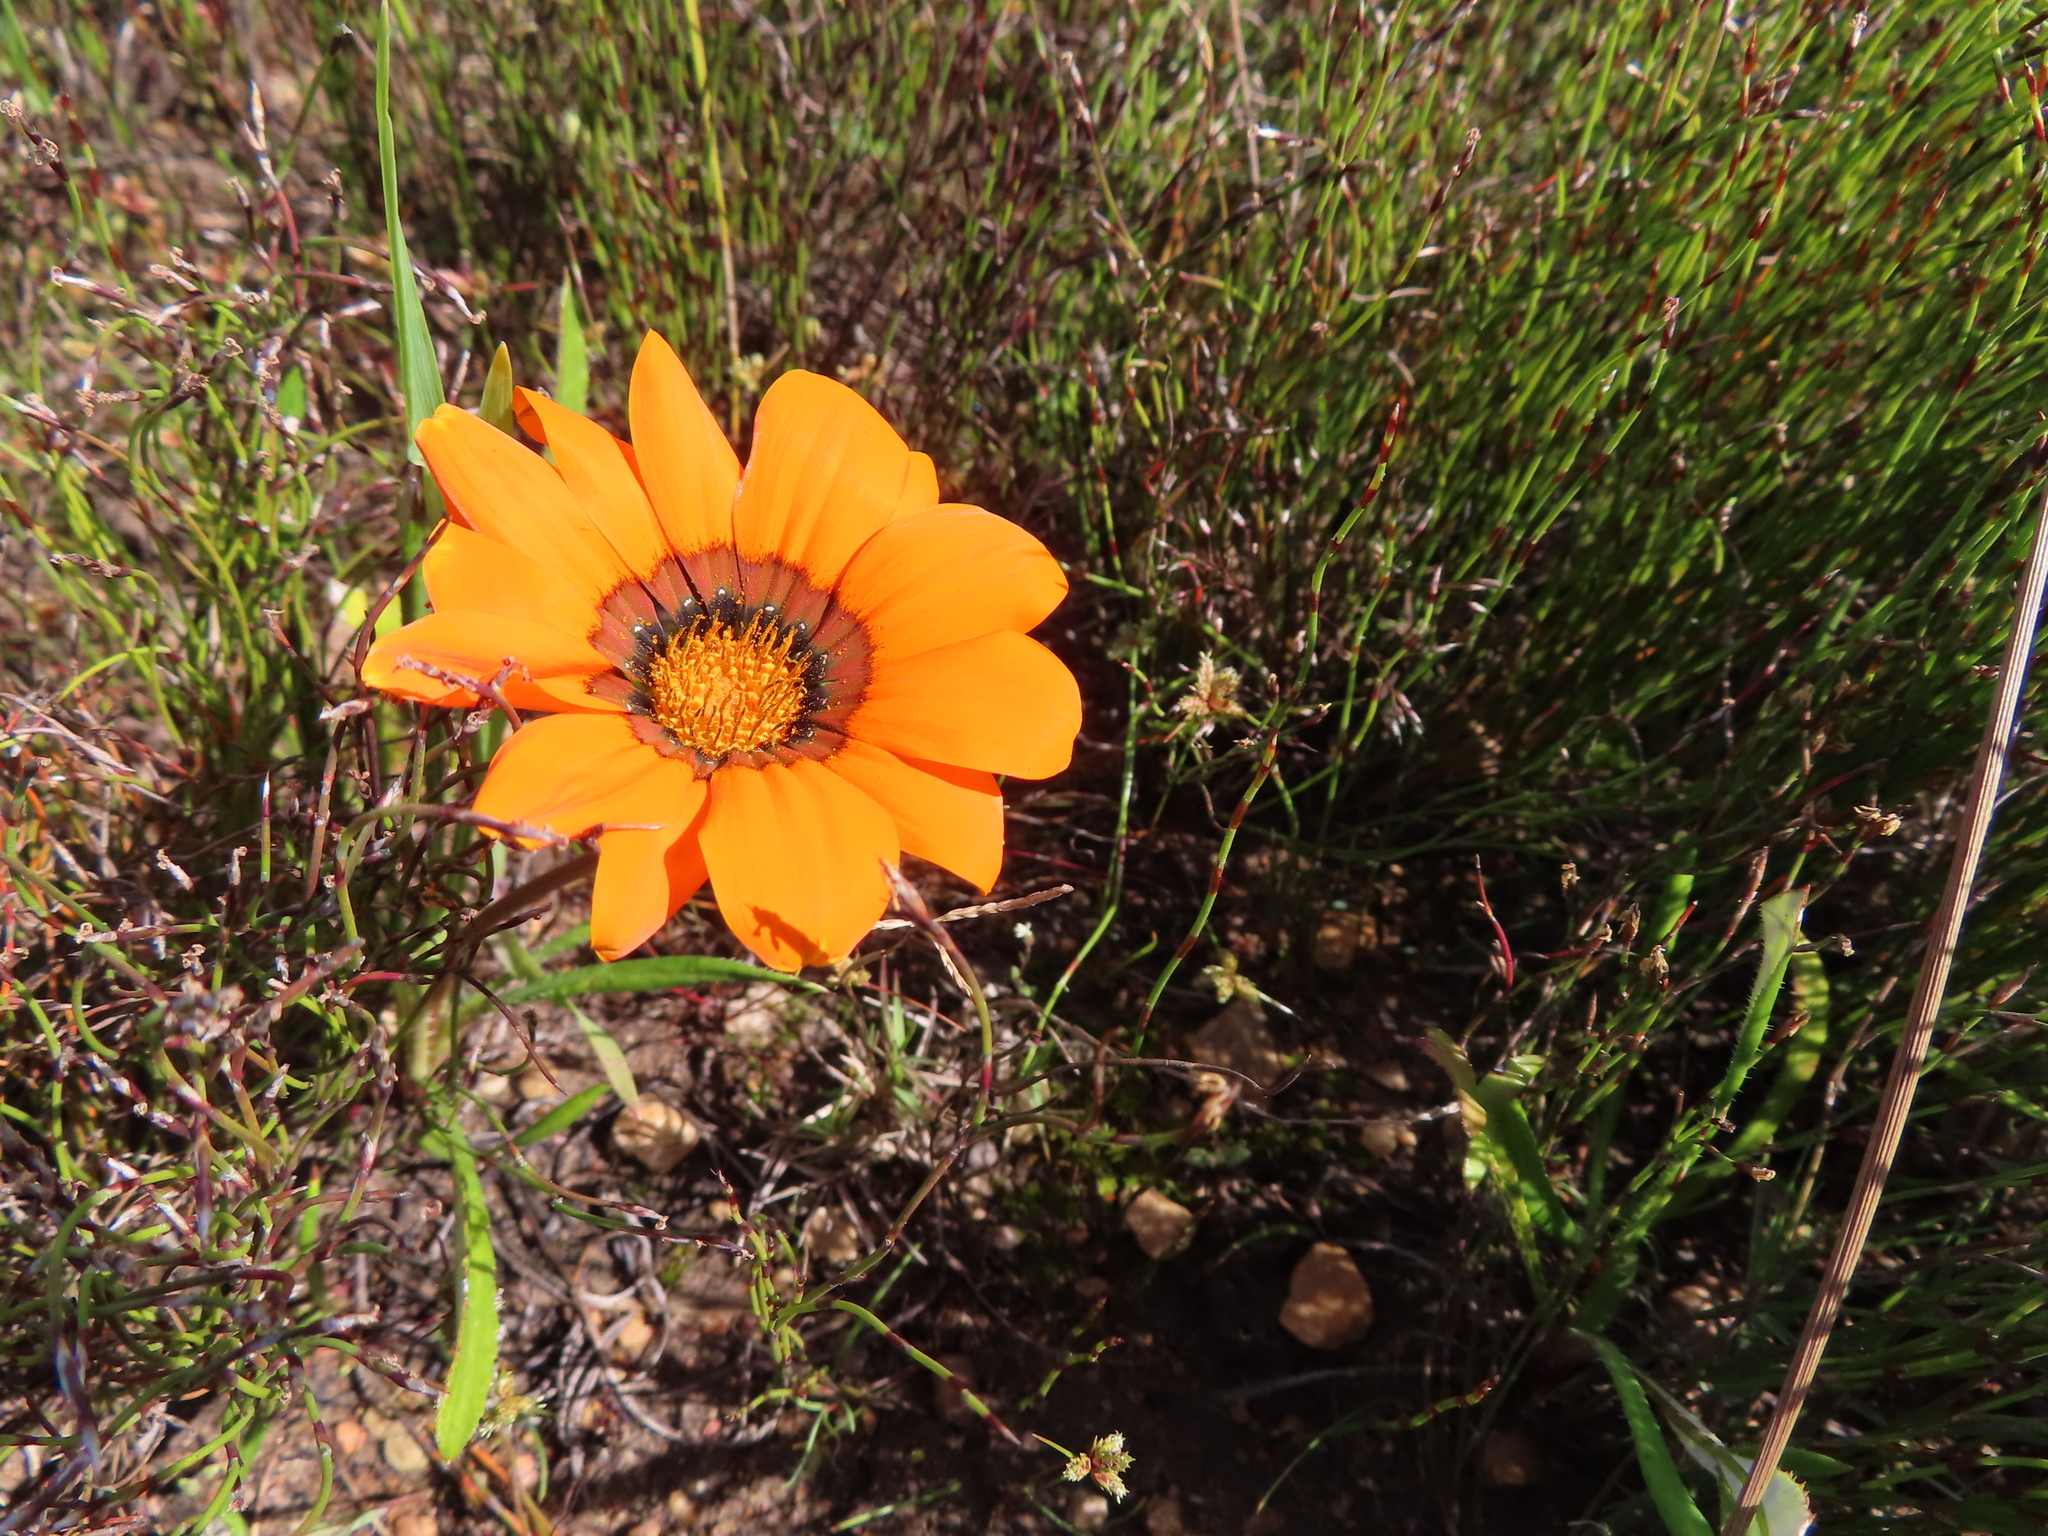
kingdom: Plantae
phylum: Tracheophyta
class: Magnoliopsida
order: Asterales
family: Asteraceae
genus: Gazania
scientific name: Gazania pectinata
